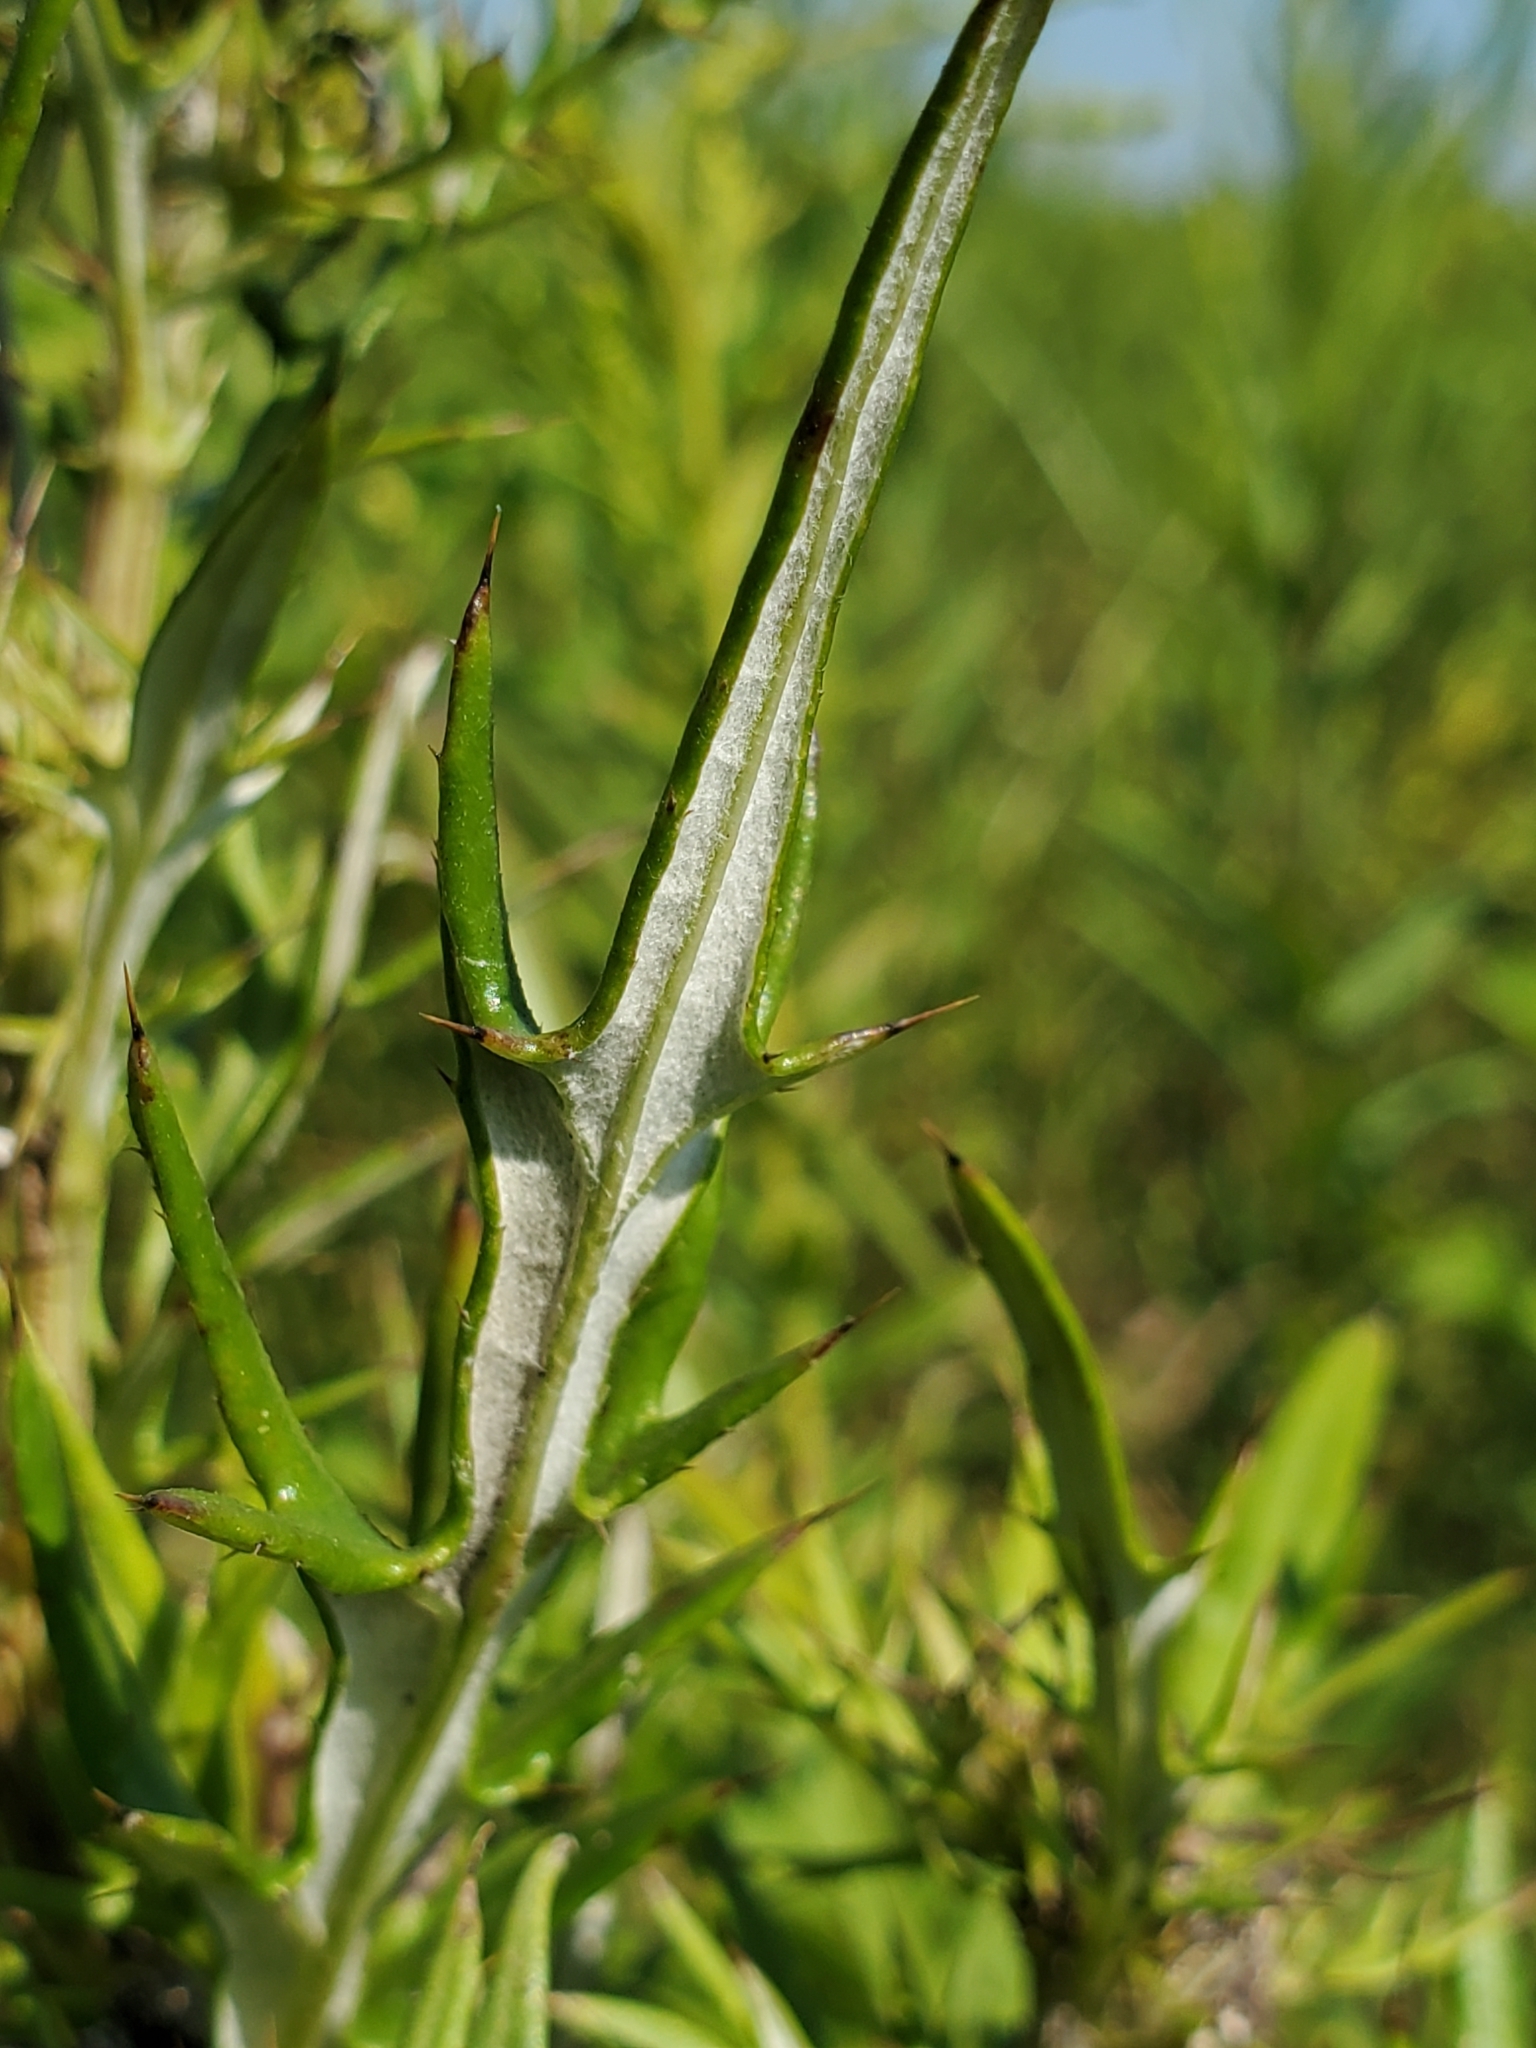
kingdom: Plantae
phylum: Tracheophyta
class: Magnoliopsida
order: Asterales
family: Asteraceae
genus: Cirsium
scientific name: Cirsium discolor
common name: Field thistle
